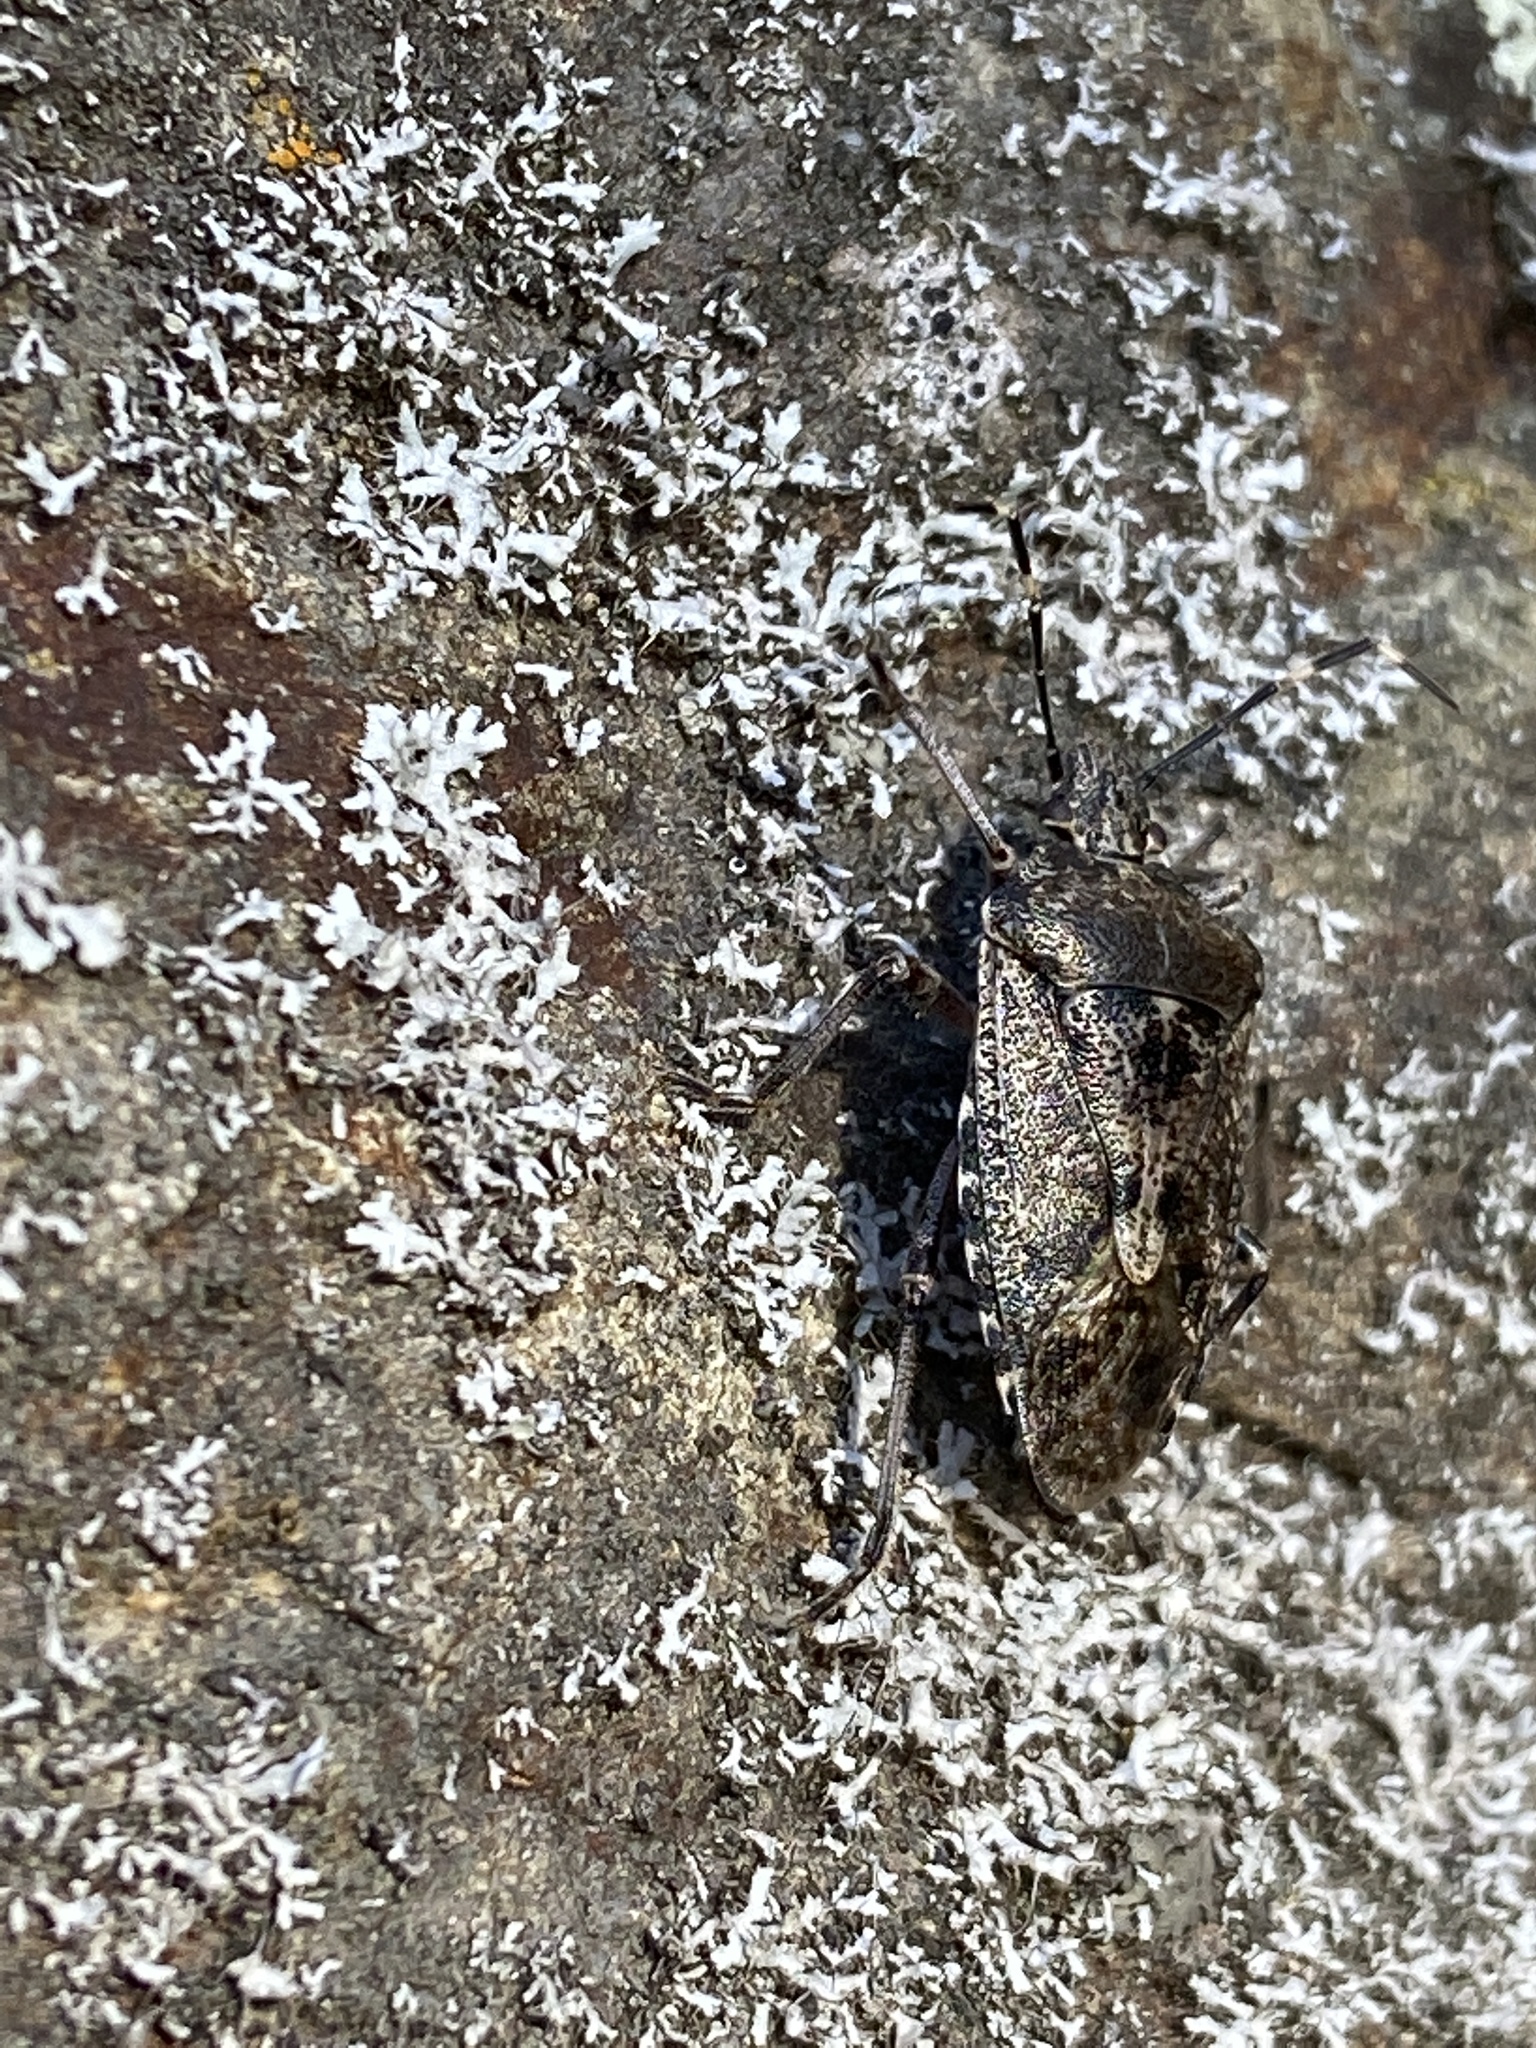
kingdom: Animalia
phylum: Arthropoda
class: Insecta
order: Hemiptera
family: Pentatomidae
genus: Rhaphigaster
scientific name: Rhaphigaster nebulosa
